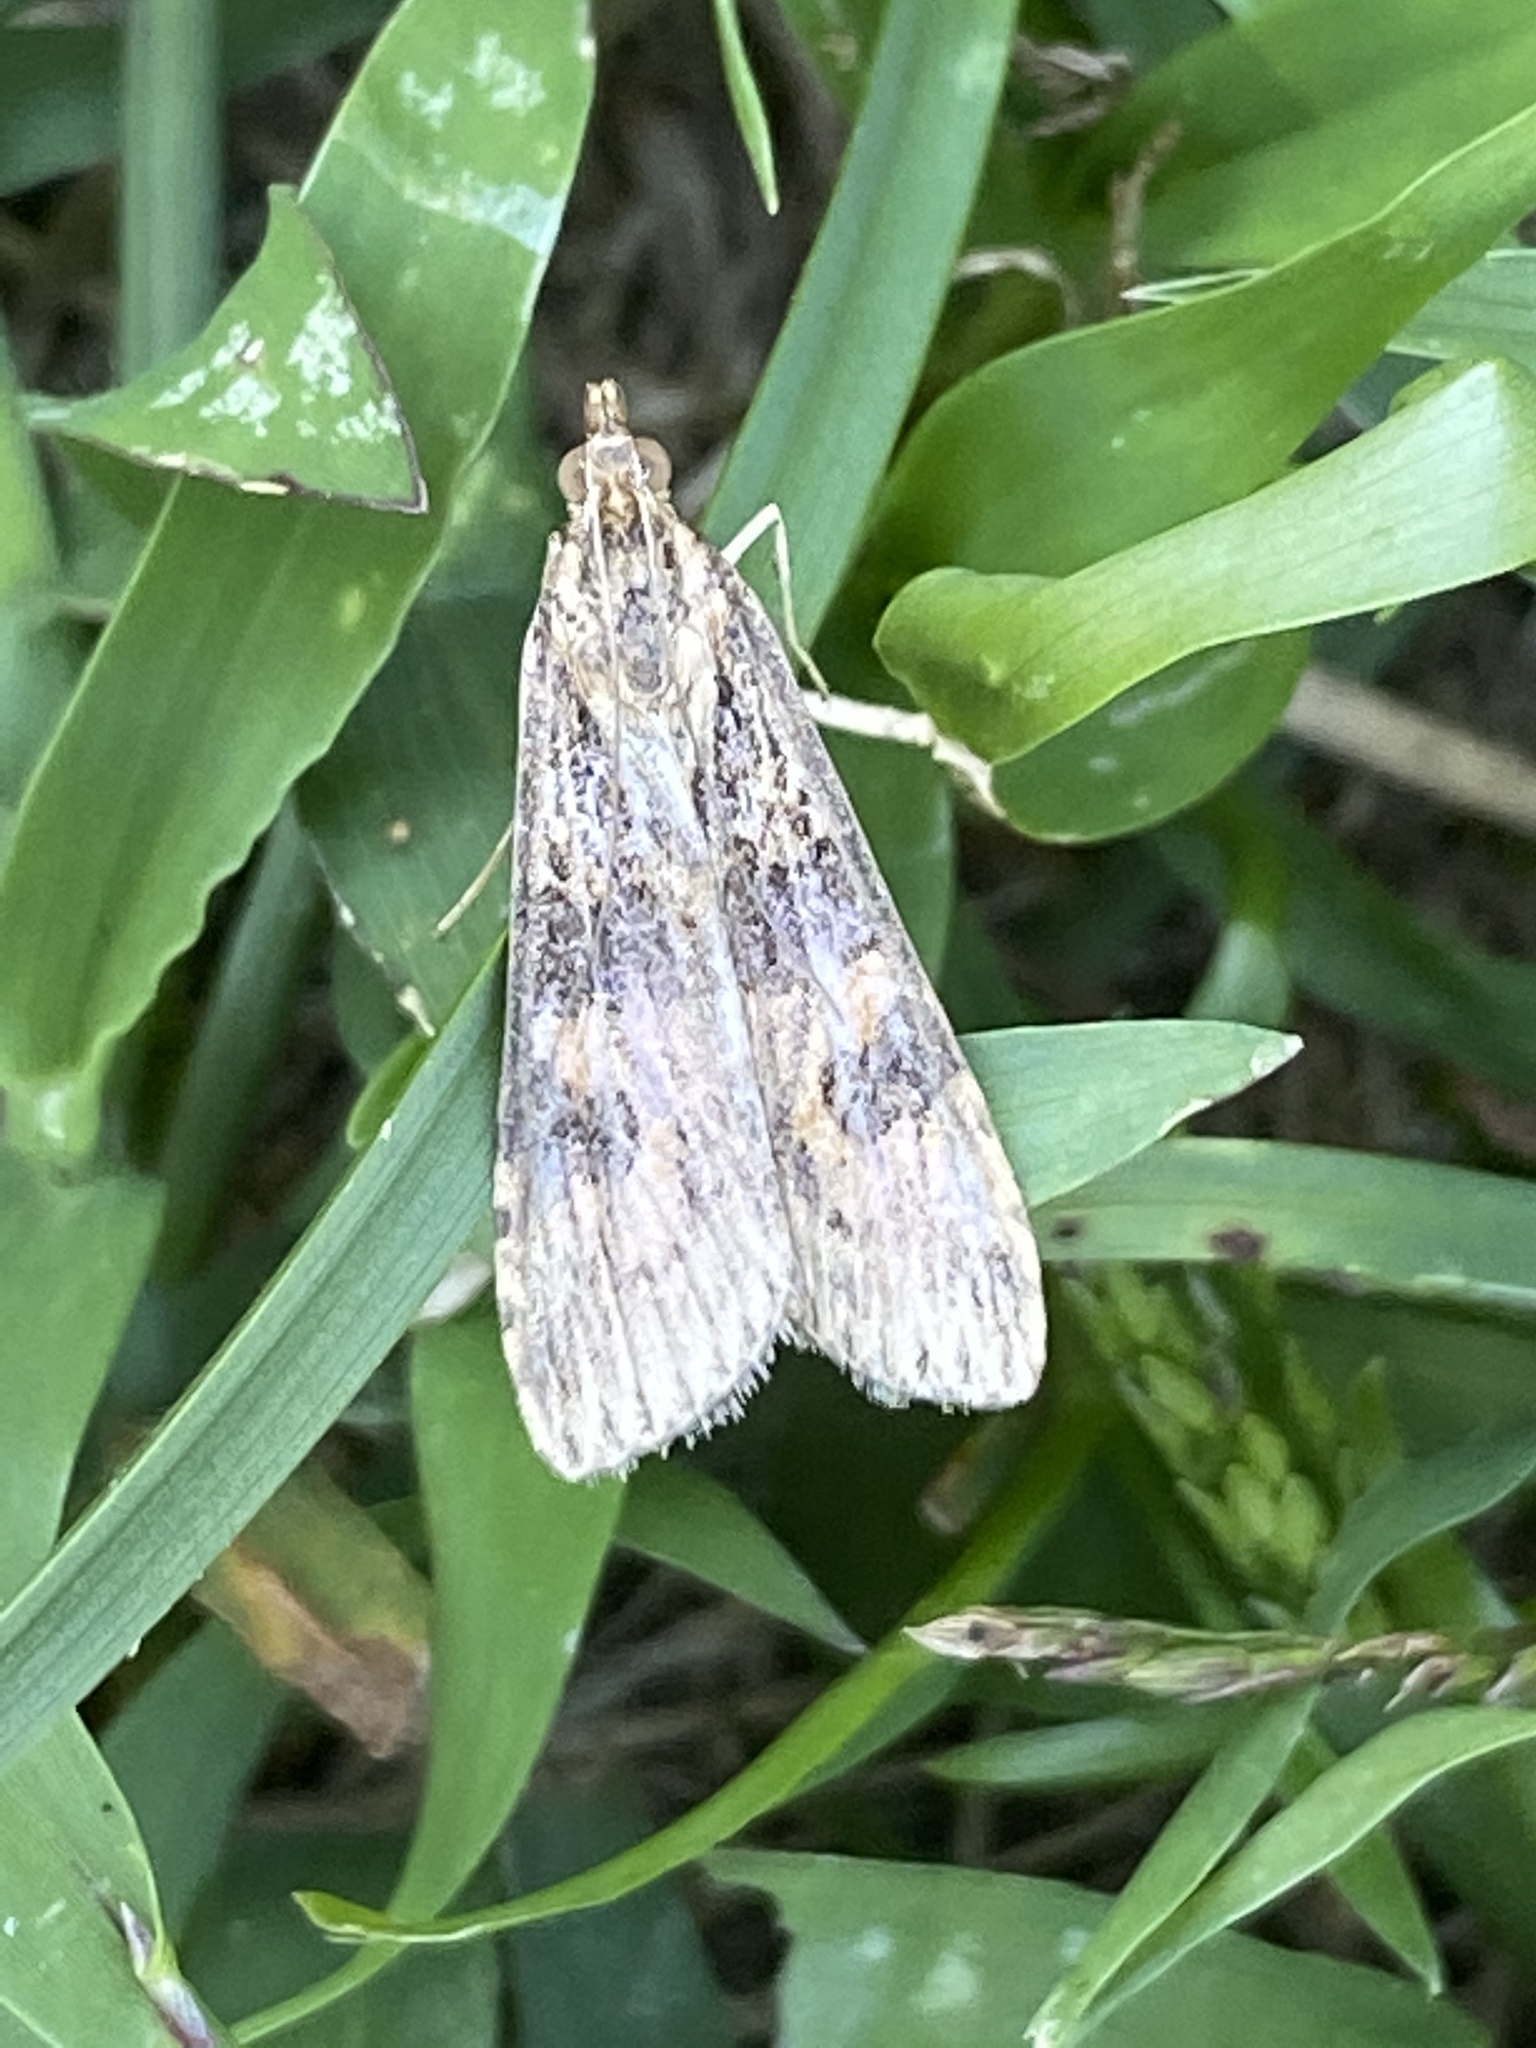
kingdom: Animalia
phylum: Arthropoda
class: Insecta
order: Lepidoptera
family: Crambidae
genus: Nomophila
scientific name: Nomophila nearctica
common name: American rush veneer
